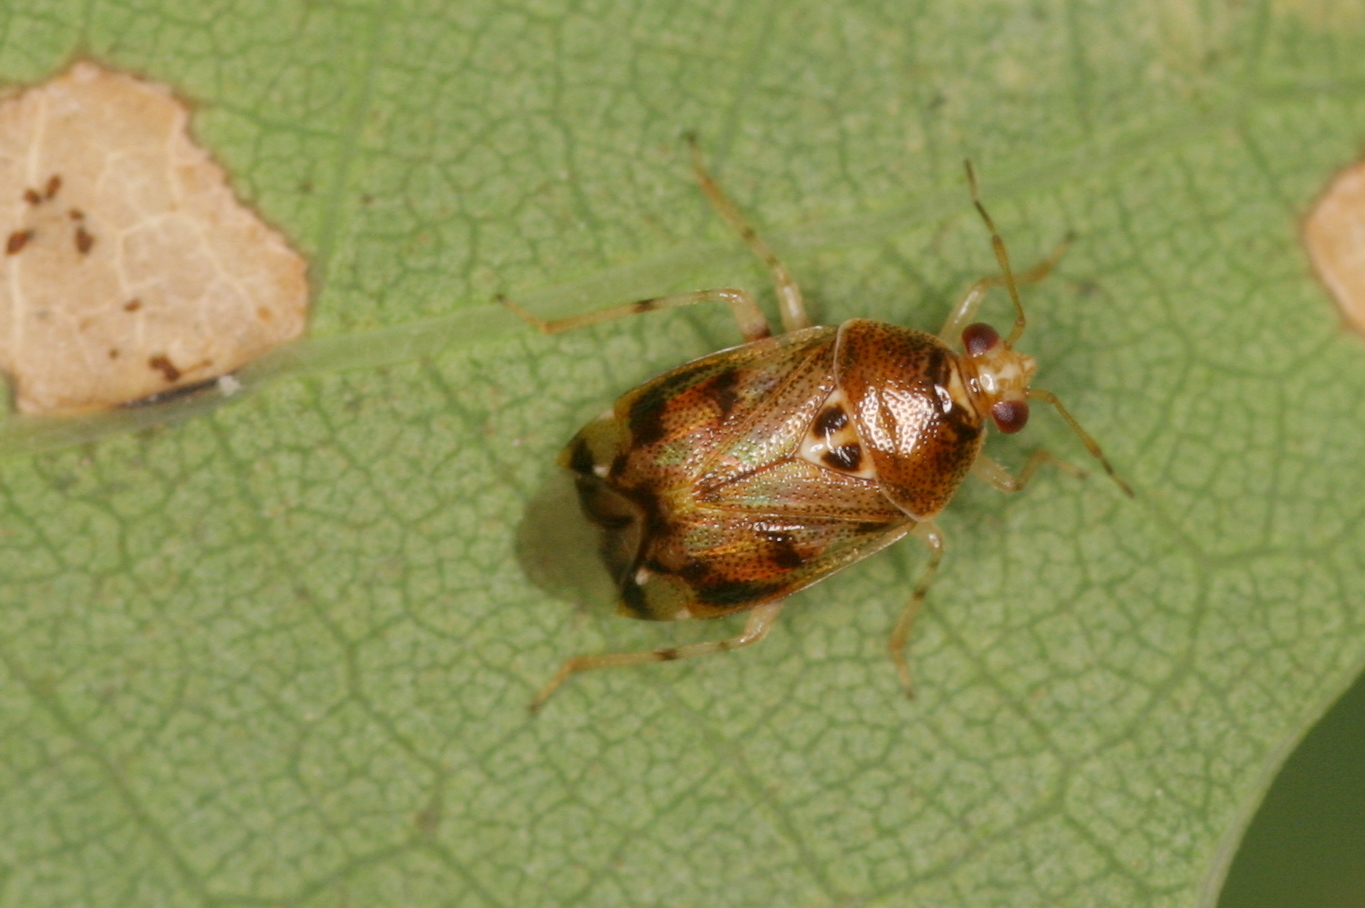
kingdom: Animalia
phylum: Arthropoda
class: Insecta
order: Hemiptera
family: Miridae
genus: Deraeocoris
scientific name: Deraeocoris lutescens
